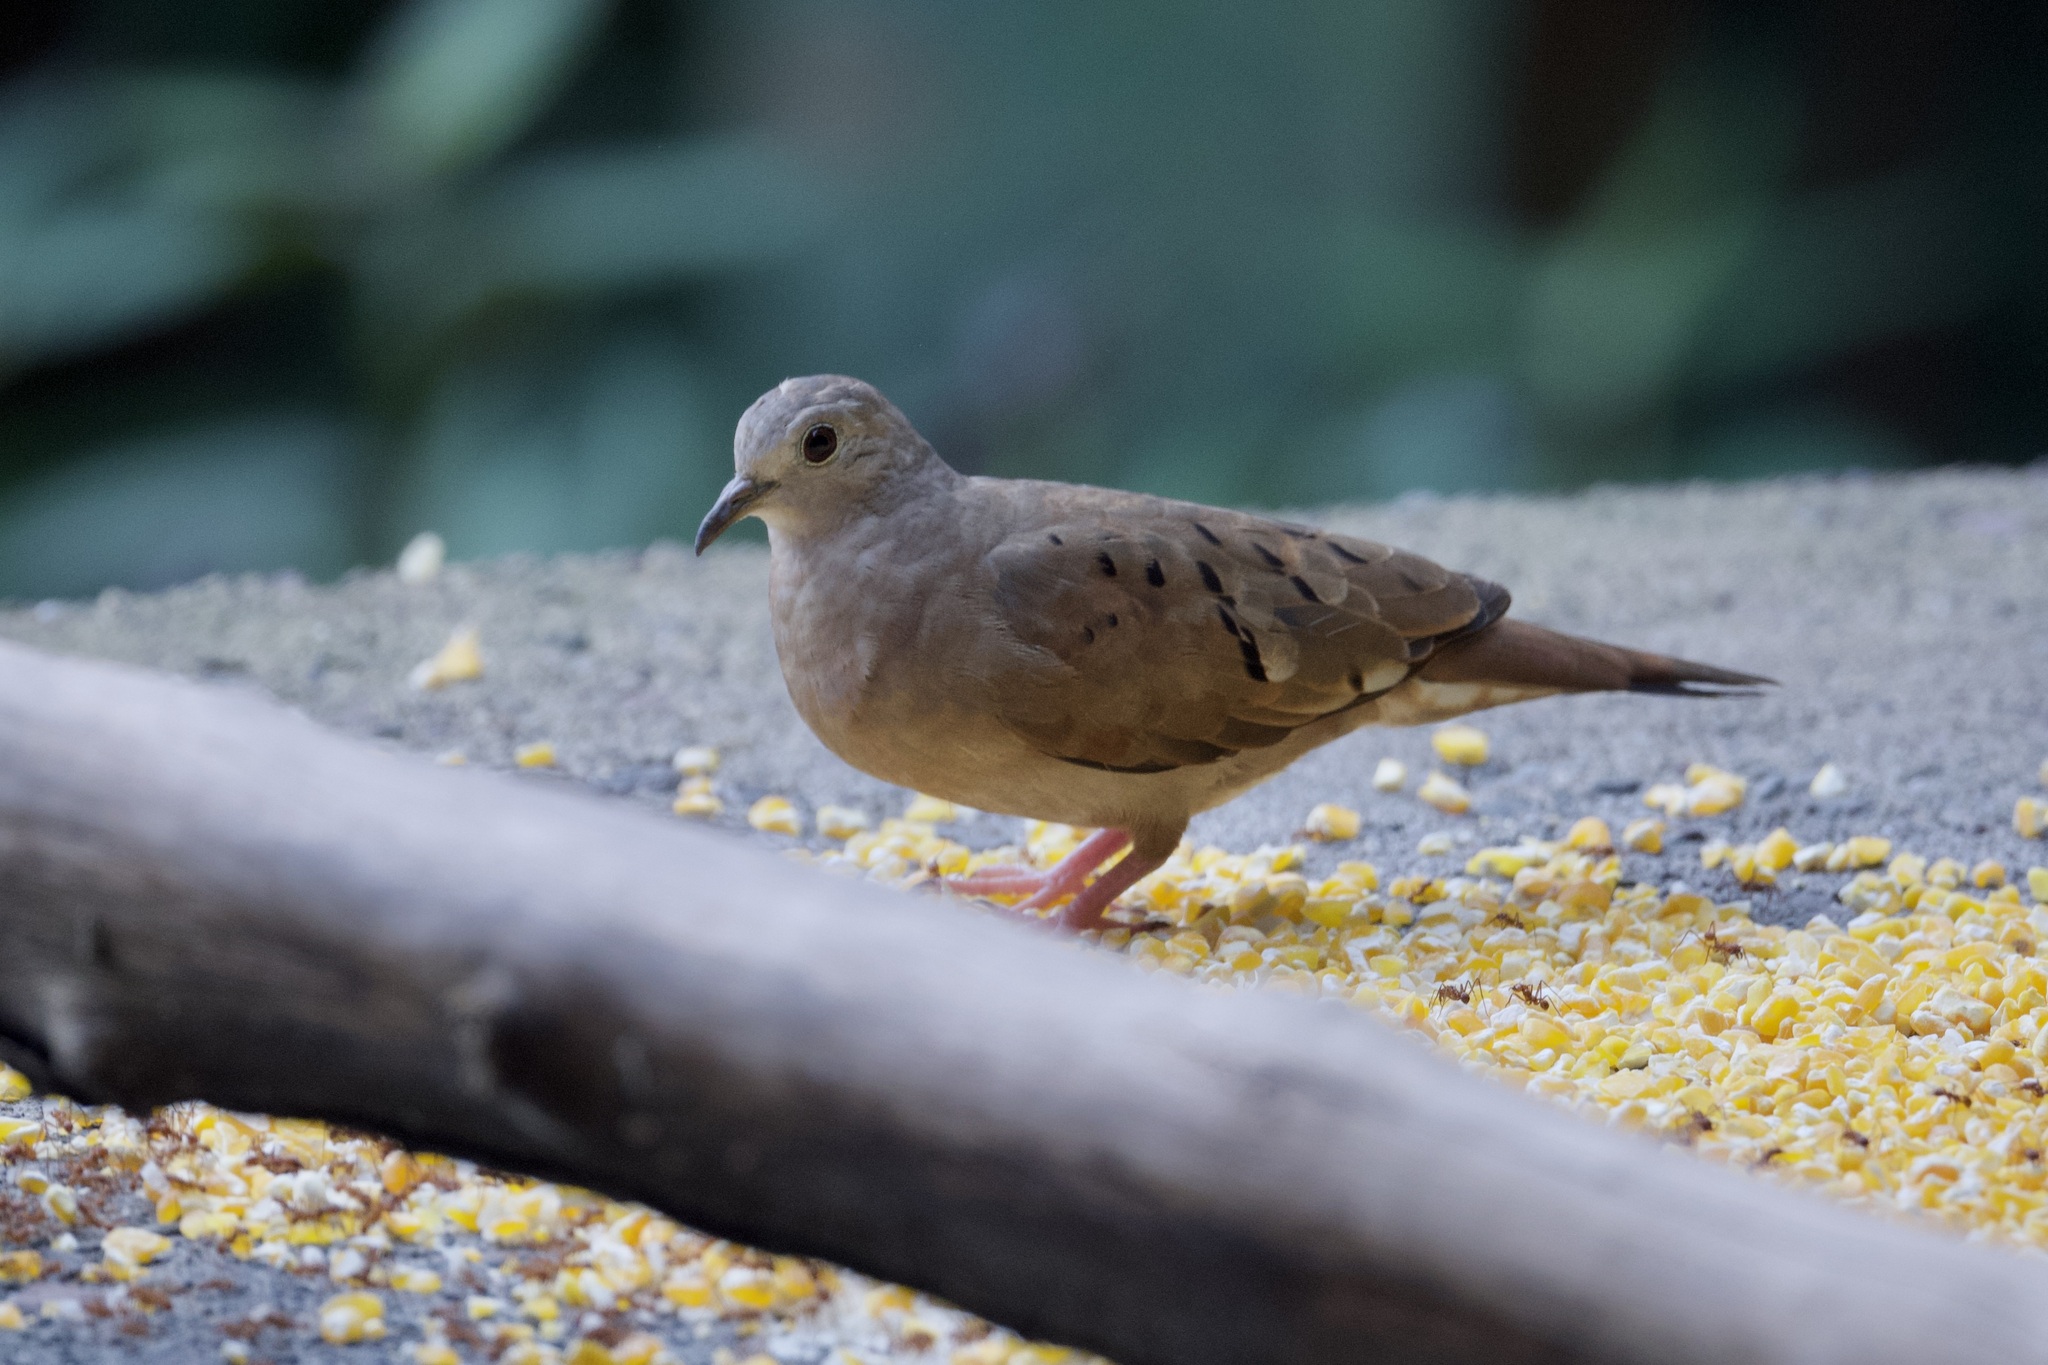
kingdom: Animalia
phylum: Chordata
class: Aves
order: Columbiformes
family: Columbidae
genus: Columbina
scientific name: Columbina talpacoti
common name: Ruddy ground dove
